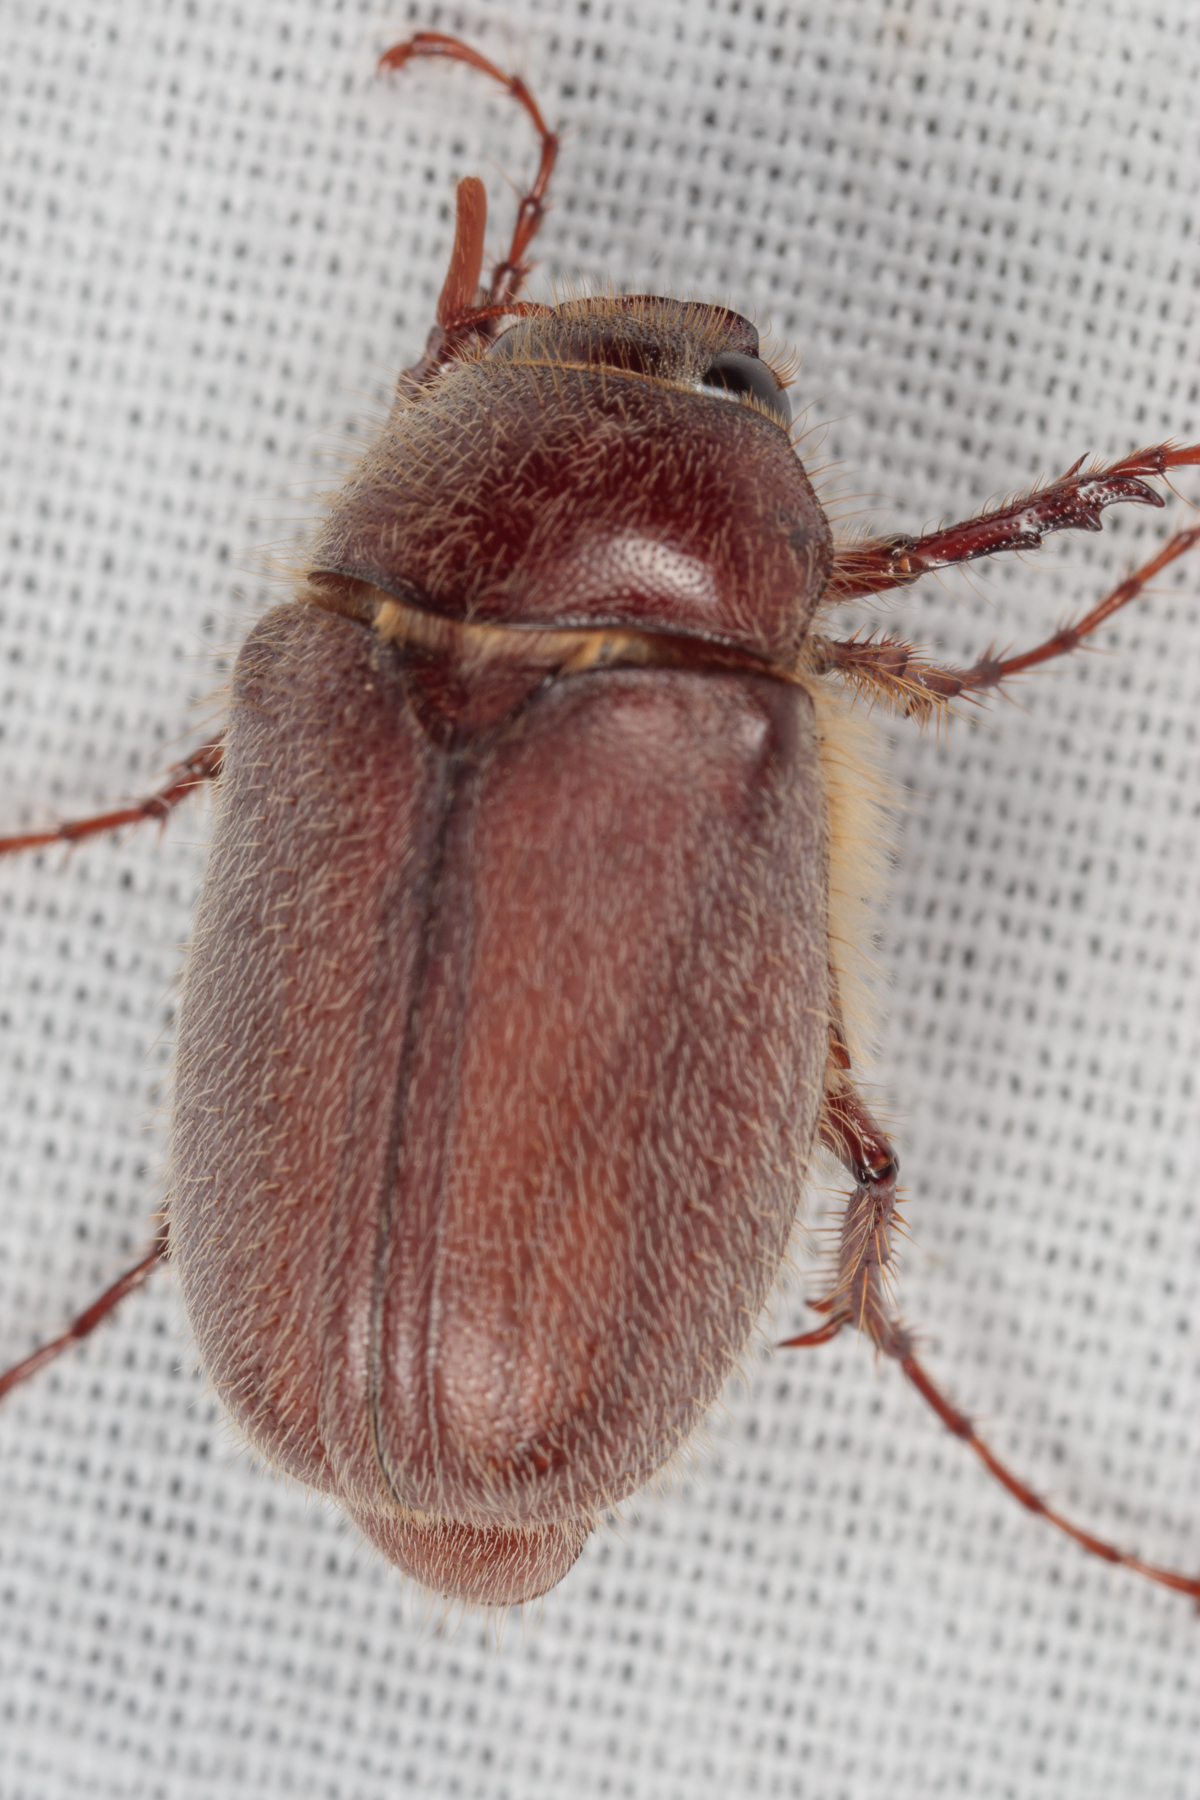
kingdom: Animalia
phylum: Arthropoda
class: Insecta
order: Coleoptera
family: Scarabaeidae
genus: Phyllophaga
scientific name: Phyllophaga rubiginosa
